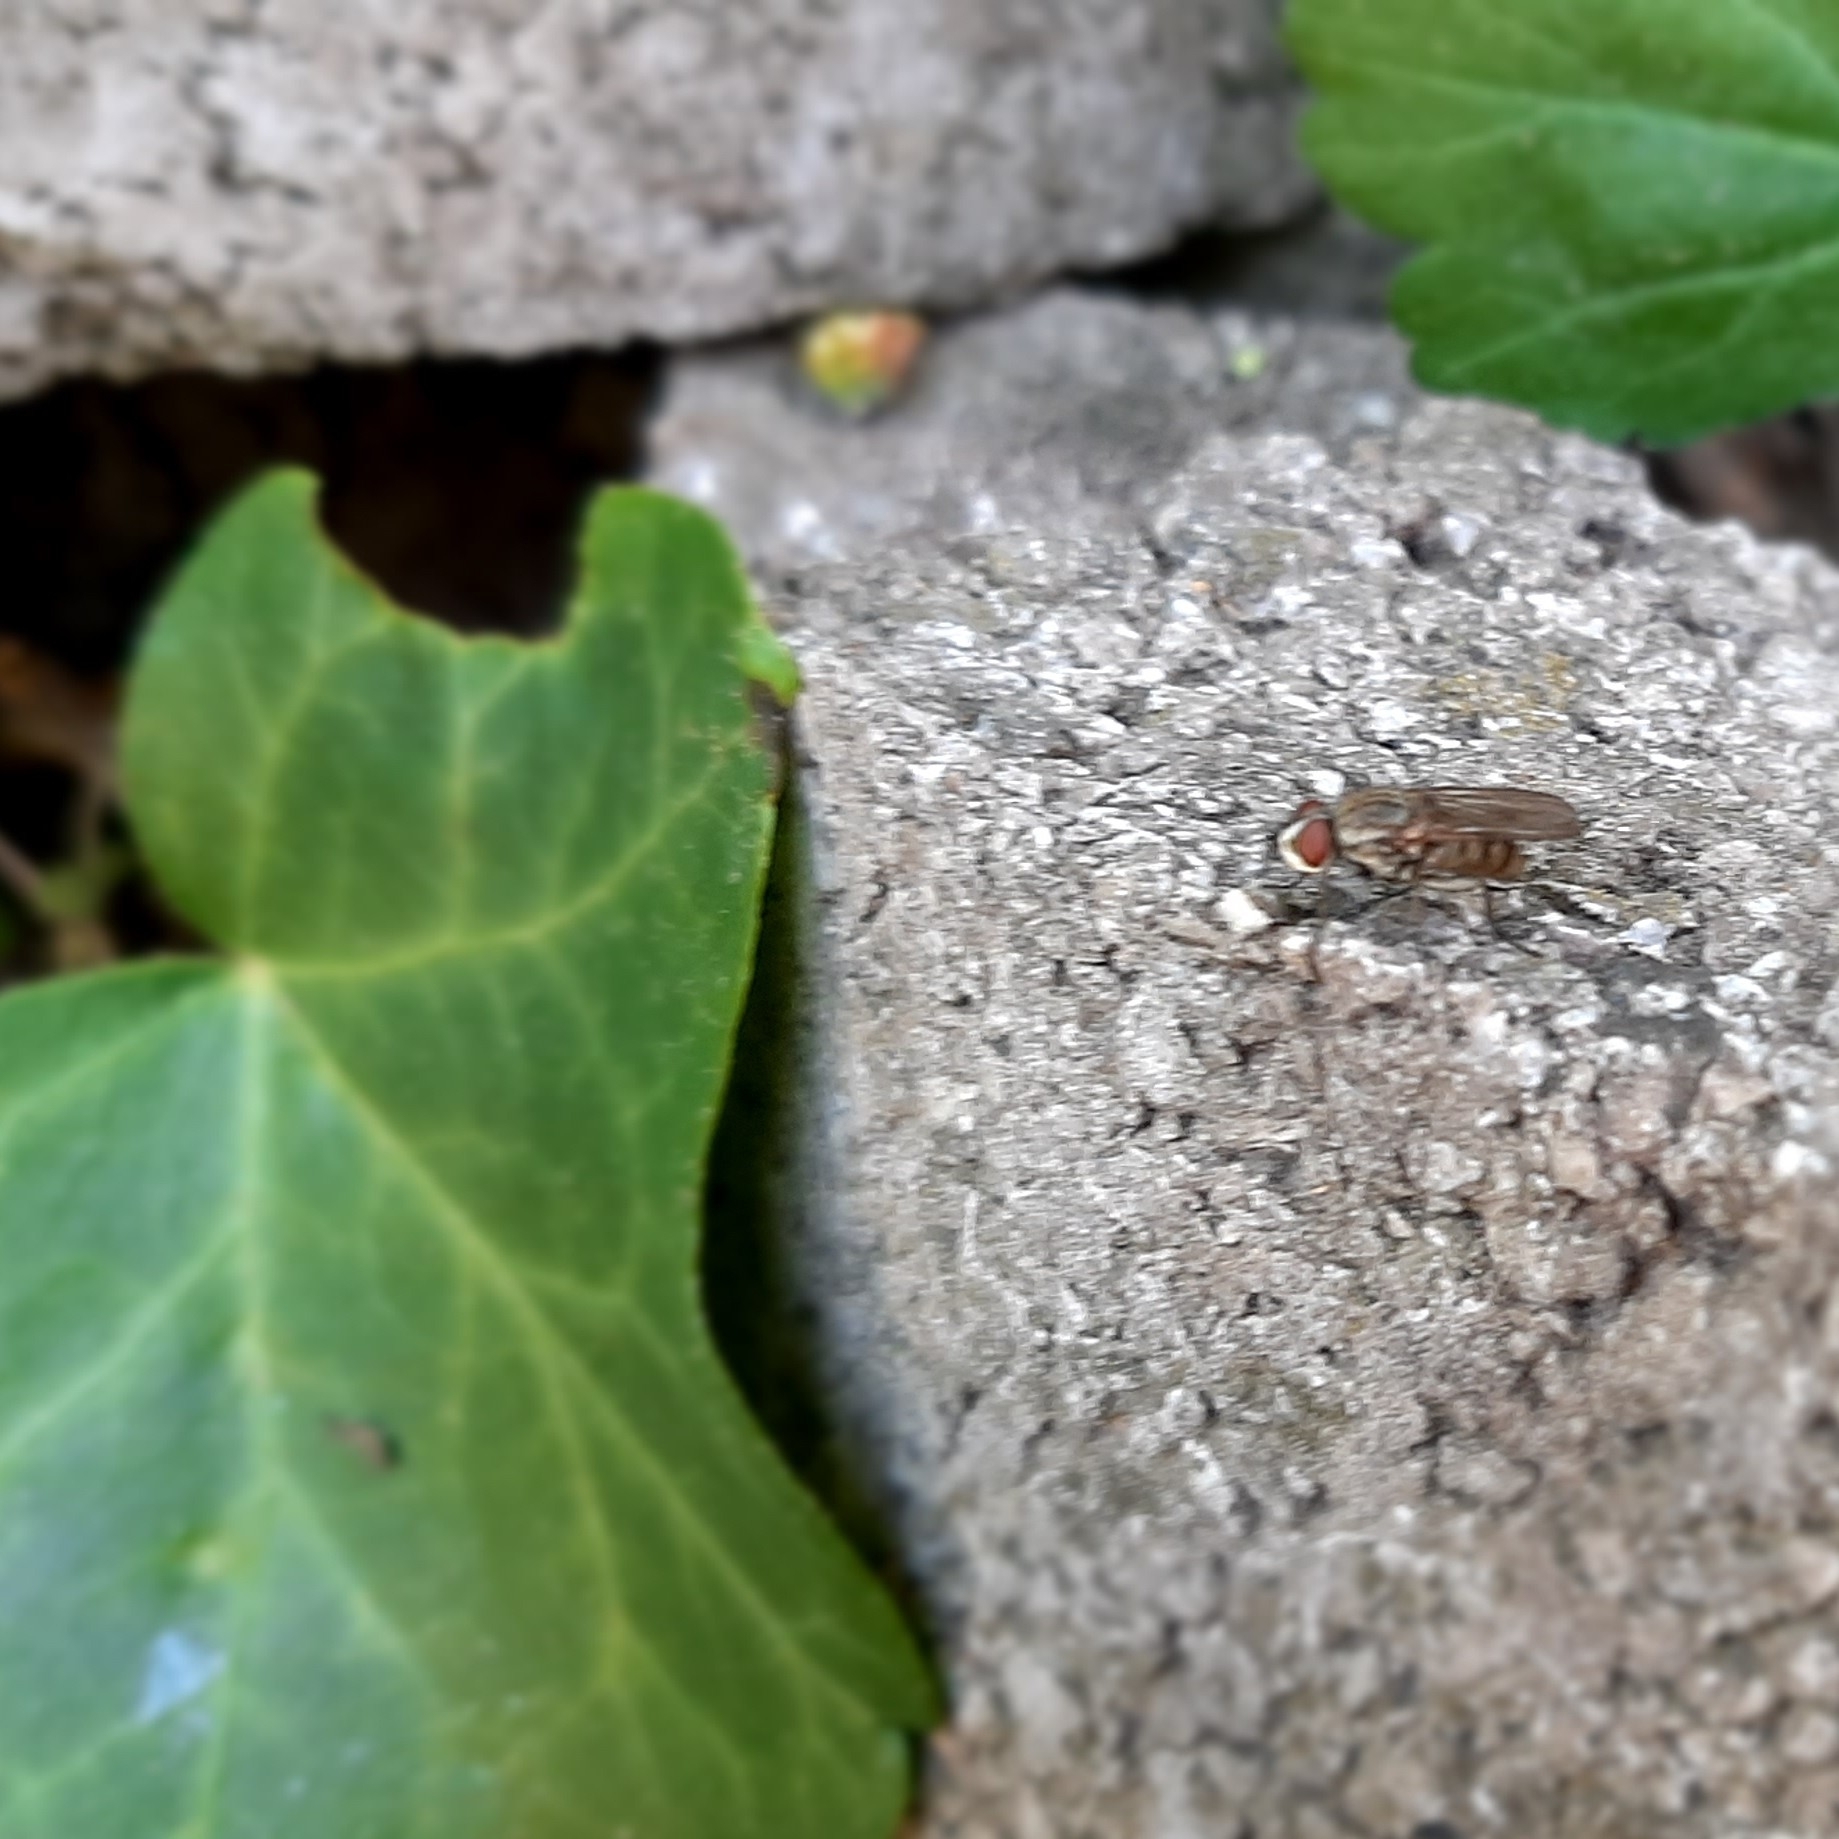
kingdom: Animalia
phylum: Arthropoda
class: Insecta
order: Diptera
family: Anthomyiidae
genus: Leucophora
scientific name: Leucophora
